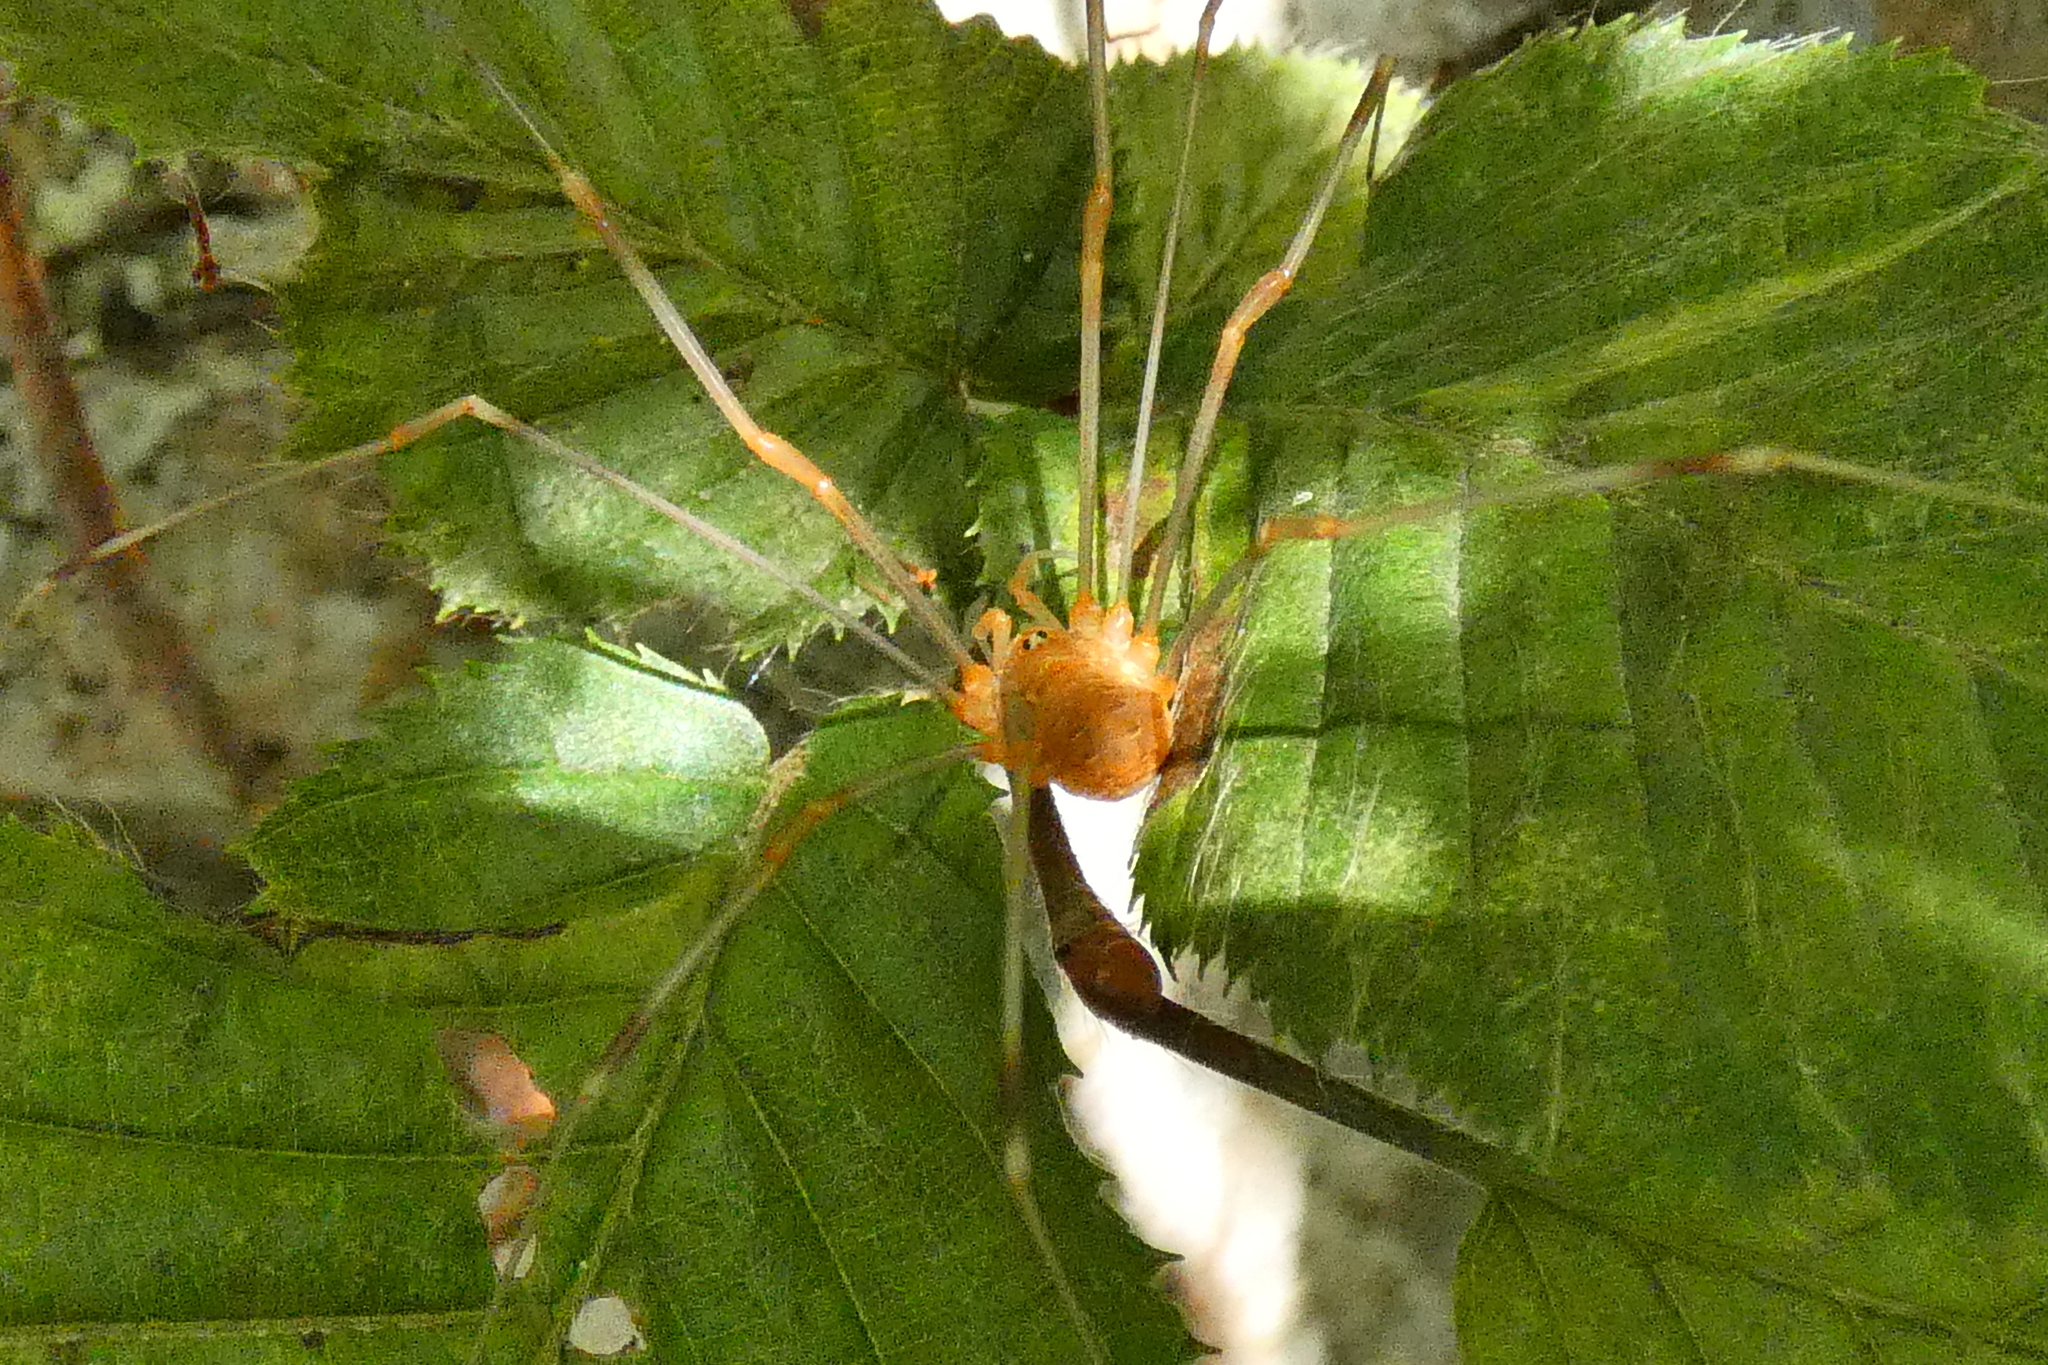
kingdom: Animalia
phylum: Arthropoda
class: Arachnida
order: Opiliones
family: Phalangiidae
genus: Opilio
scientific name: Opilio canestrinii
